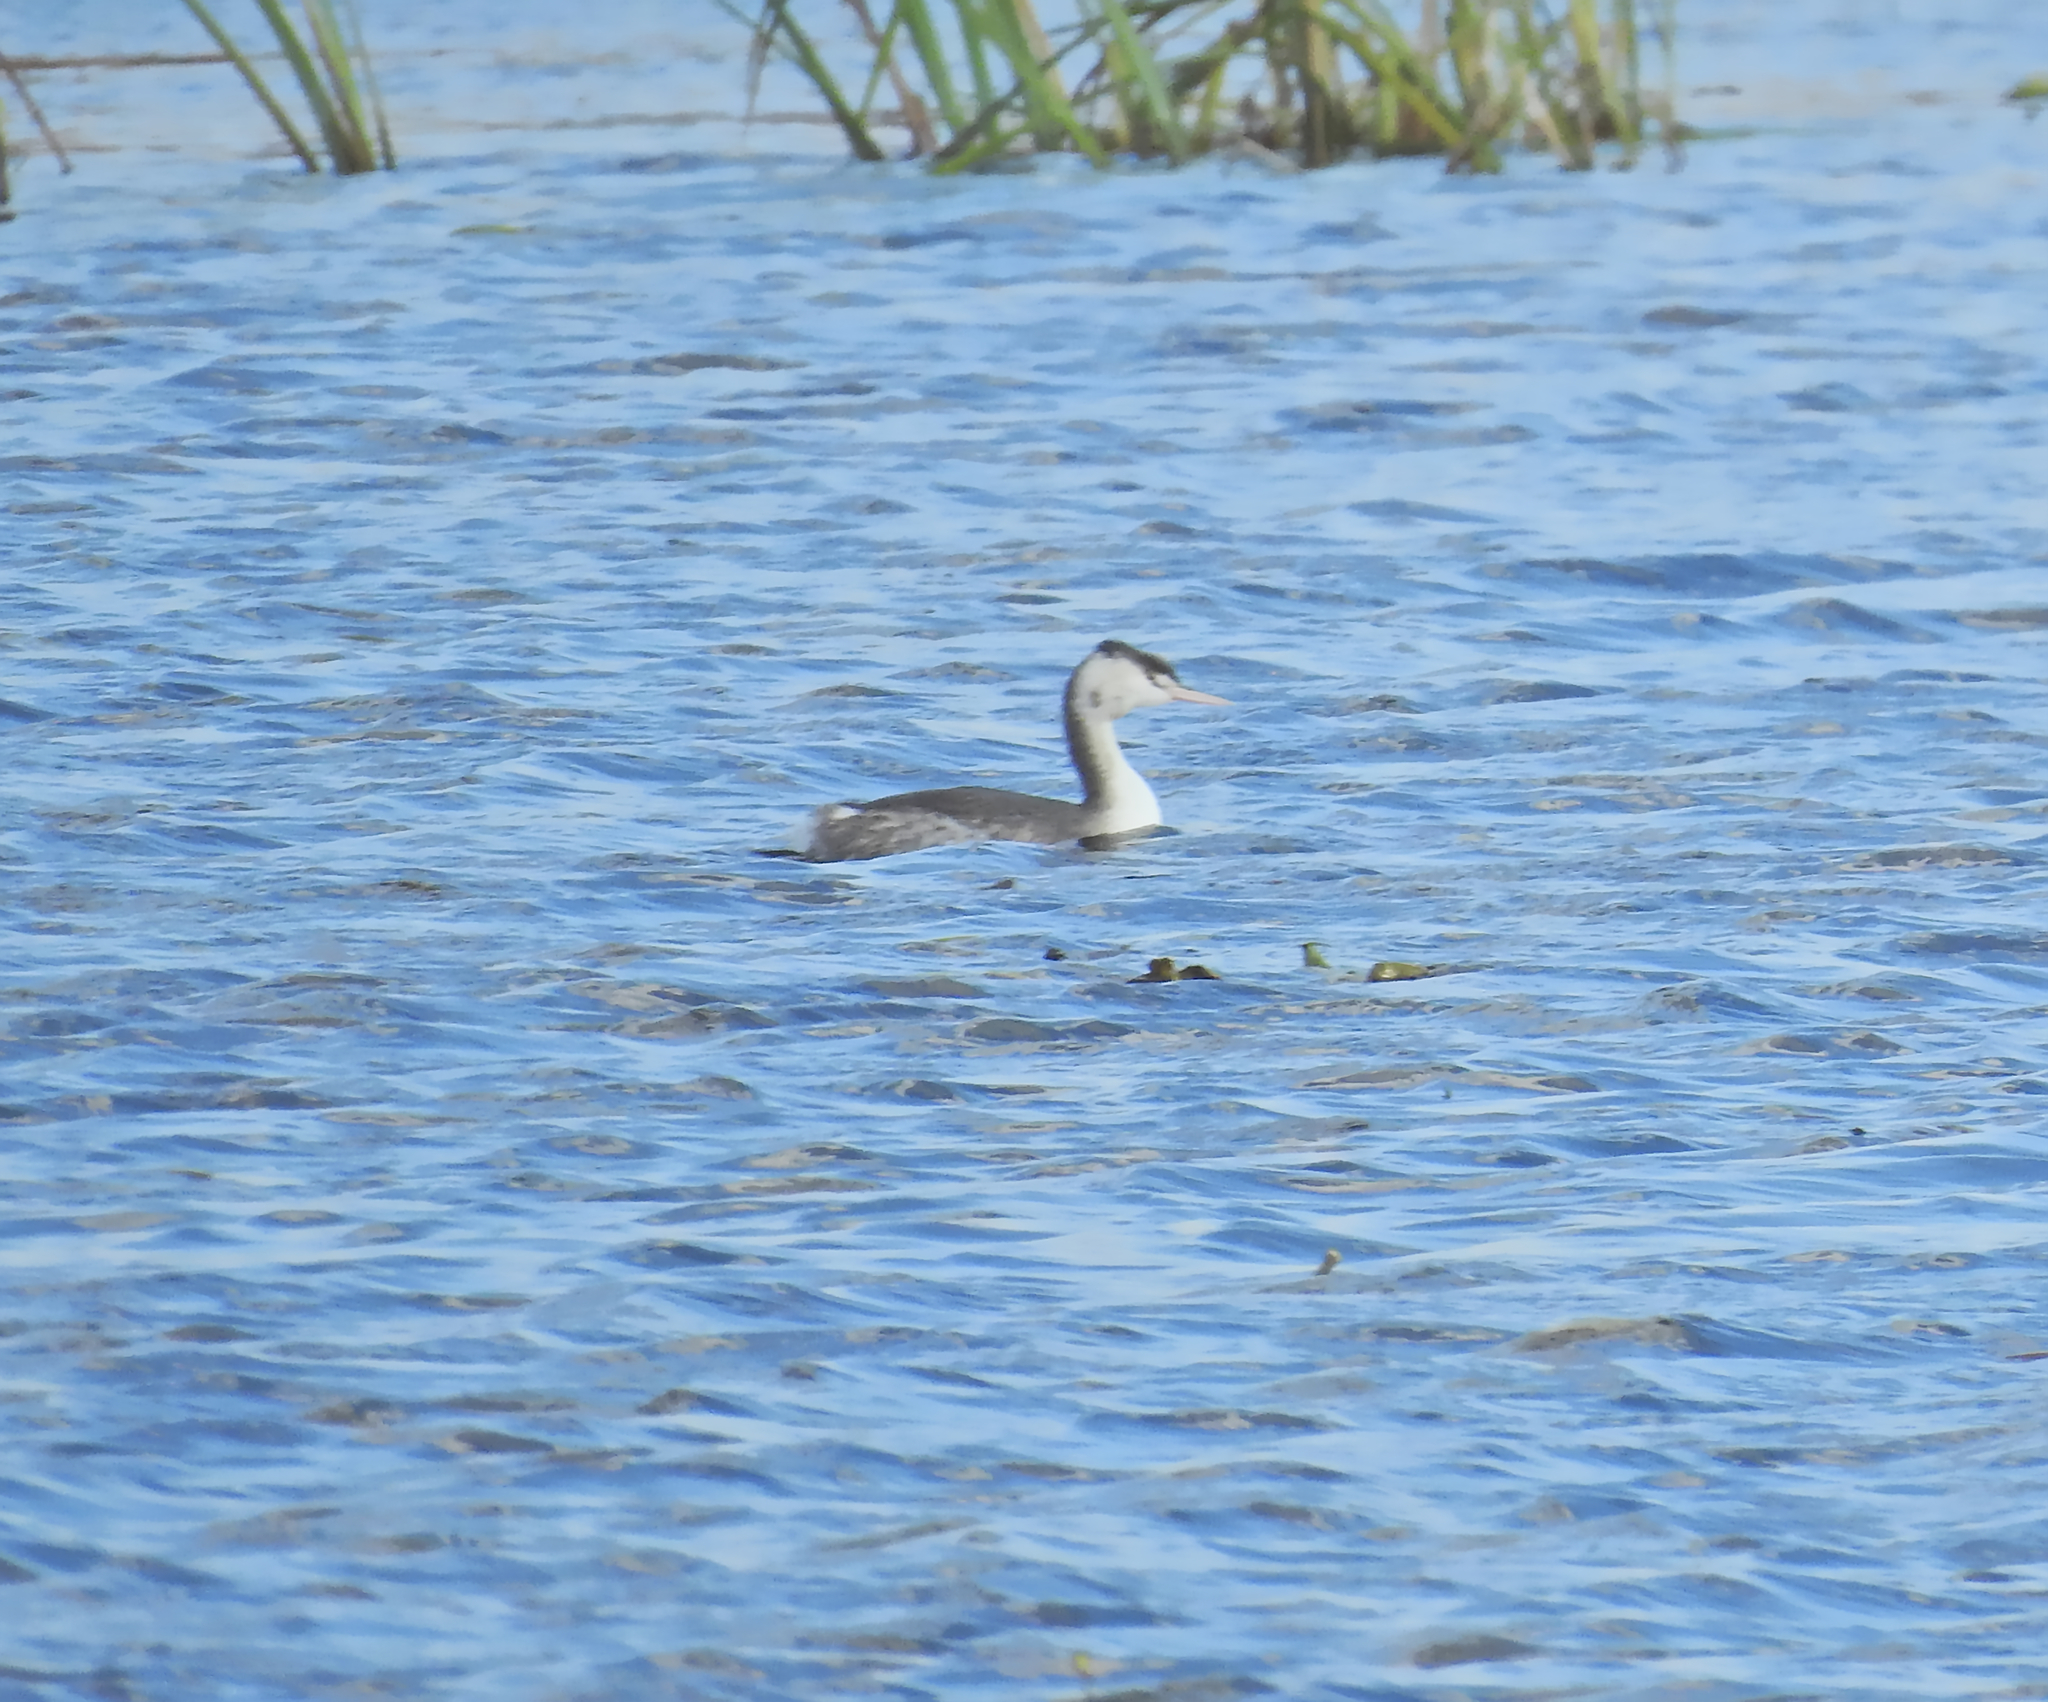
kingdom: Animalia
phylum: Chordata
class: Aves
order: Podicipediformes
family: Podicipedidae
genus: Podiceps
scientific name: Podiceps cristatus
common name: Great crested grebe
